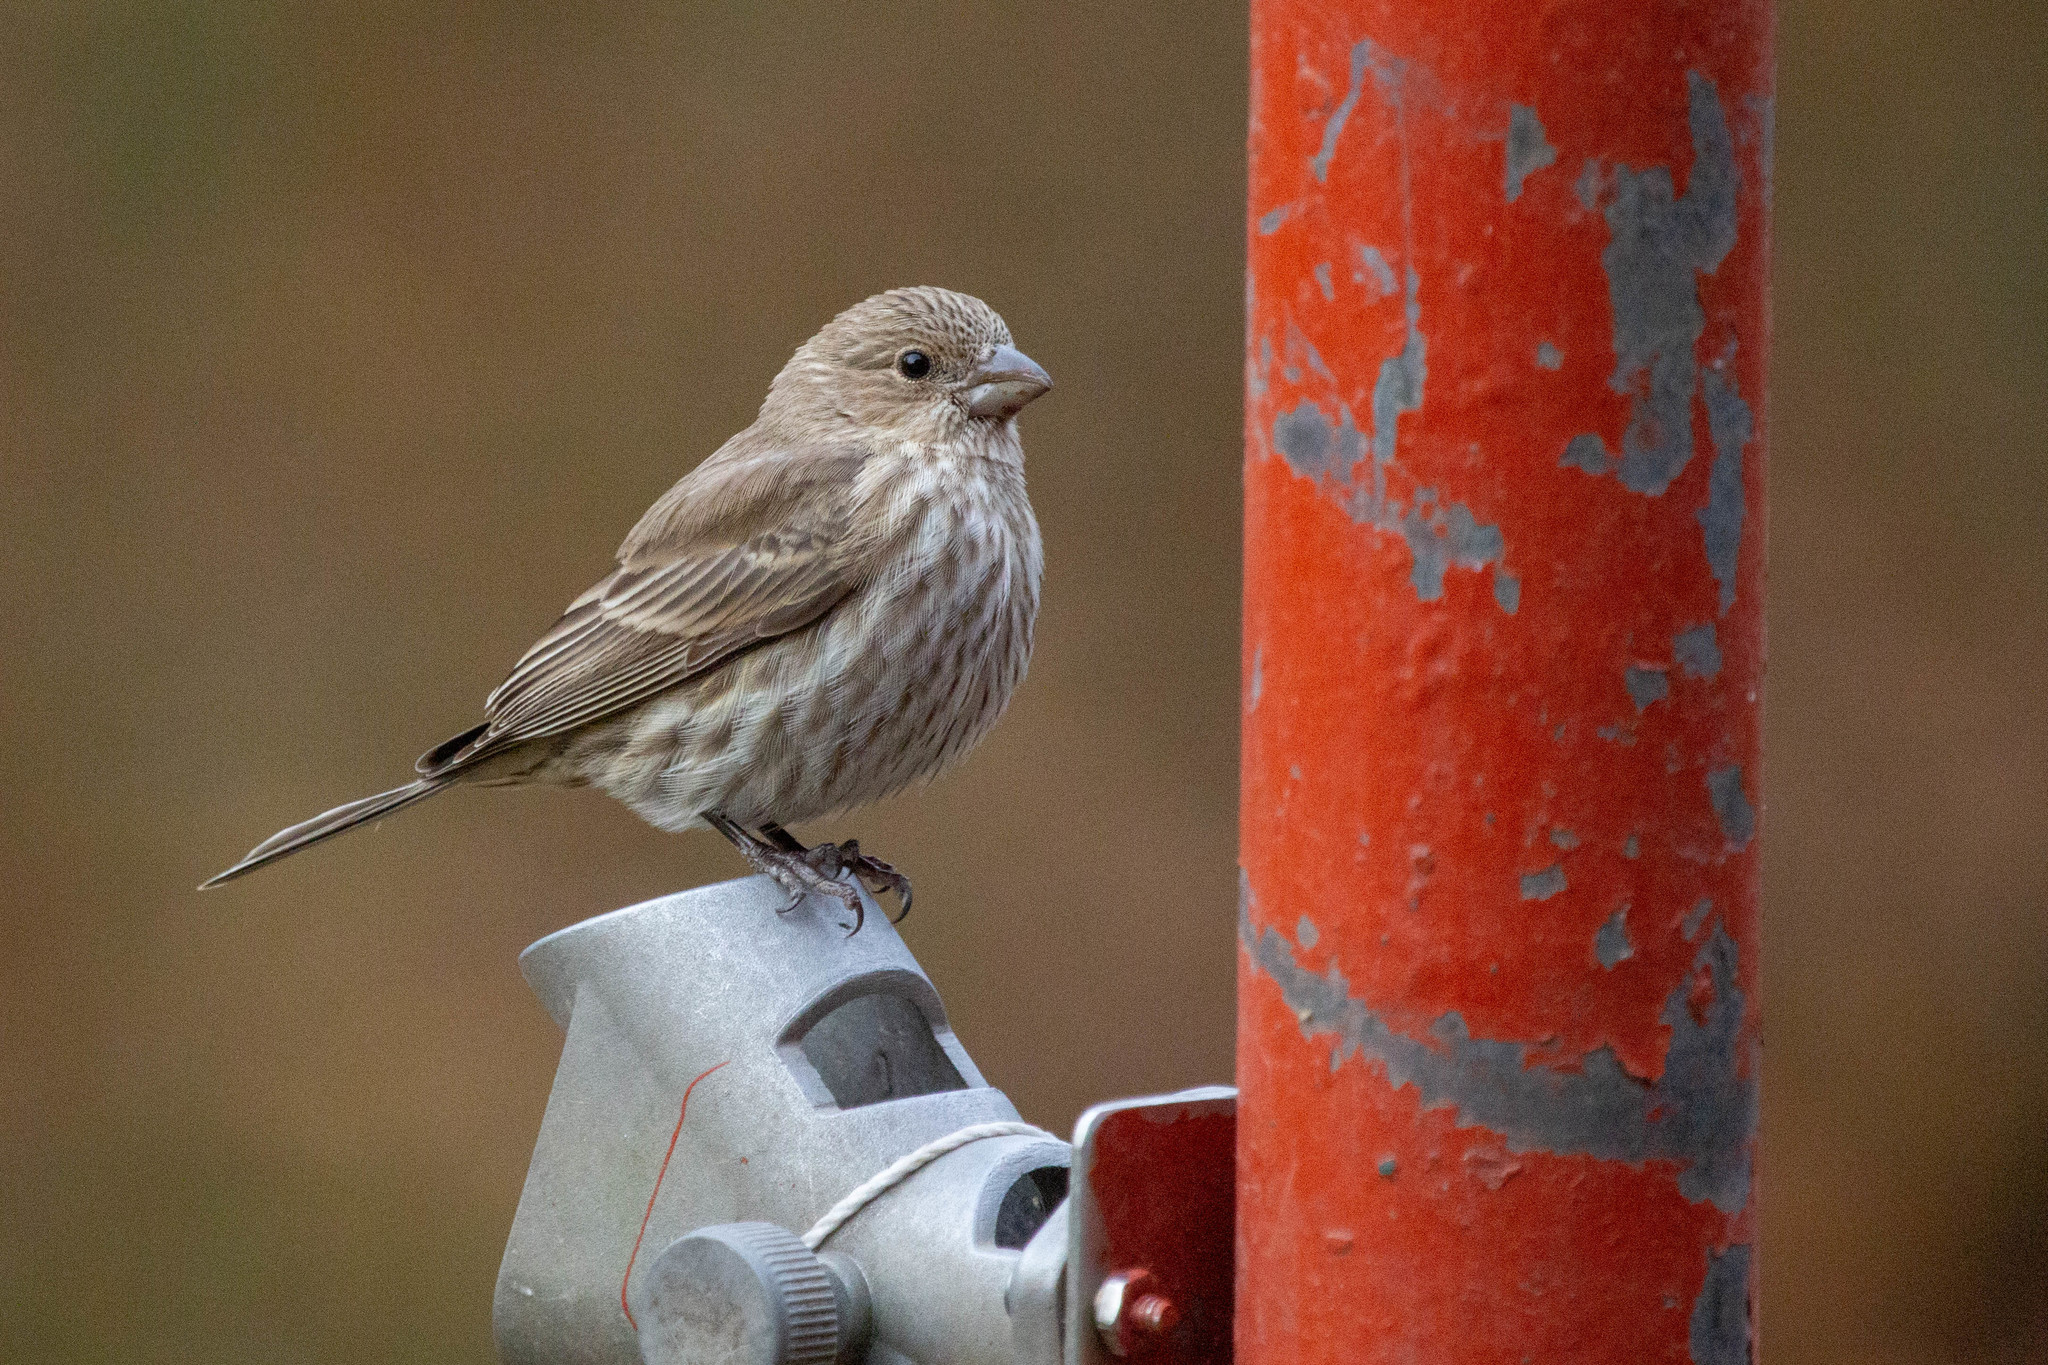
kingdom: Animalia
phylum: Chordata
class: Aves
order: Passeriformes
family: Fringillidae
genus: Haemorhous
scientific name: Haemorhous mexicanus
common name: House finch
